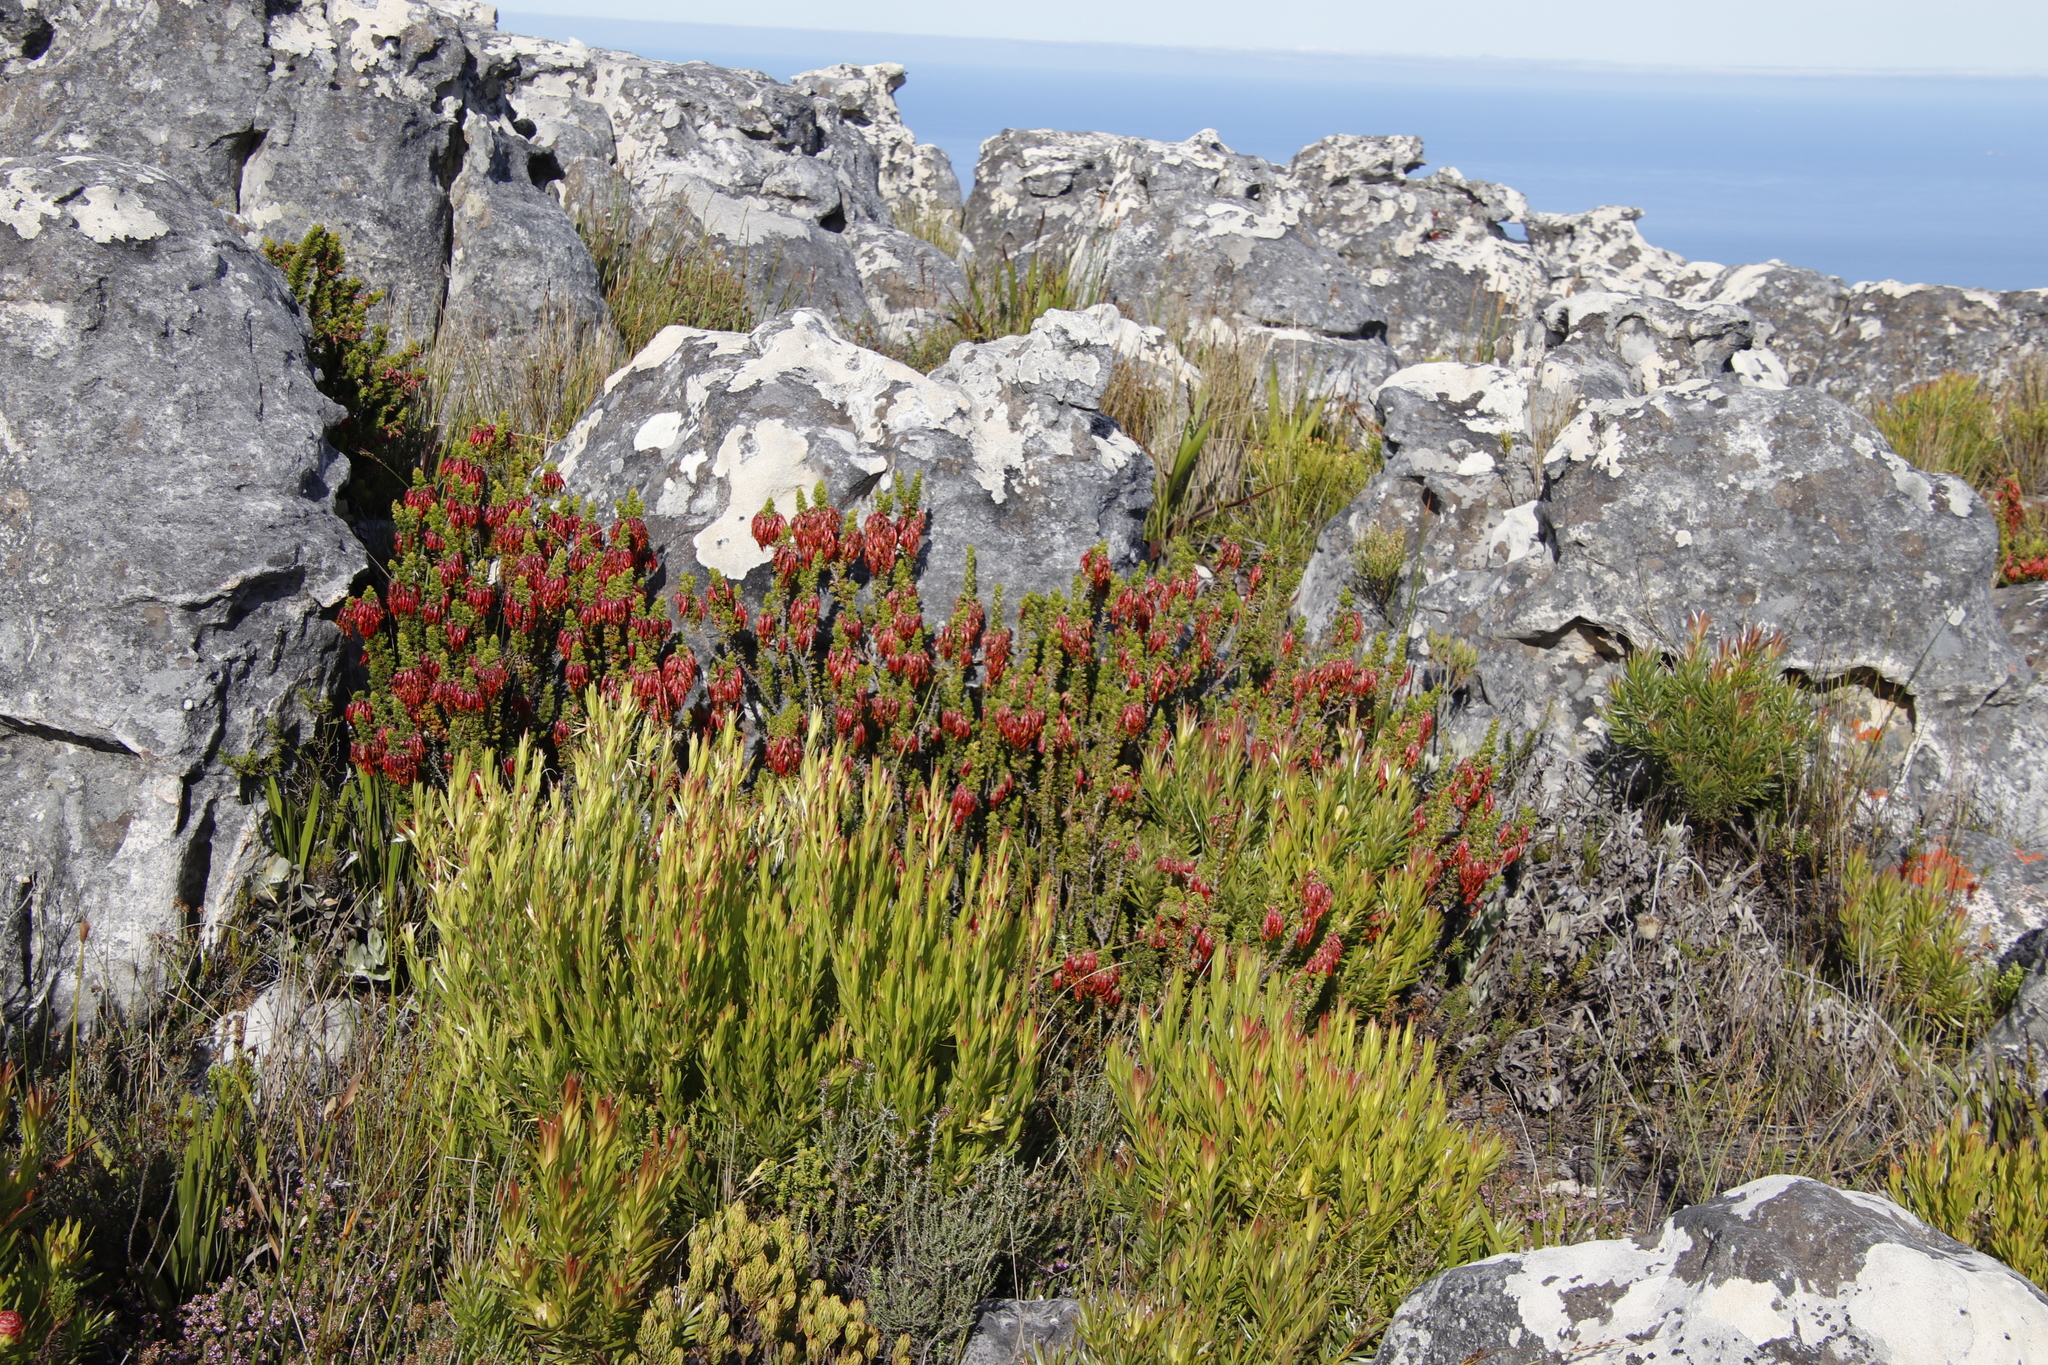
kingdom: Plantae
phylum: Tracheophyta
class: Magnoliopsida
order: Ericales
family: Ericaceae
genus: Erica
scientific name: Erica coccinea
